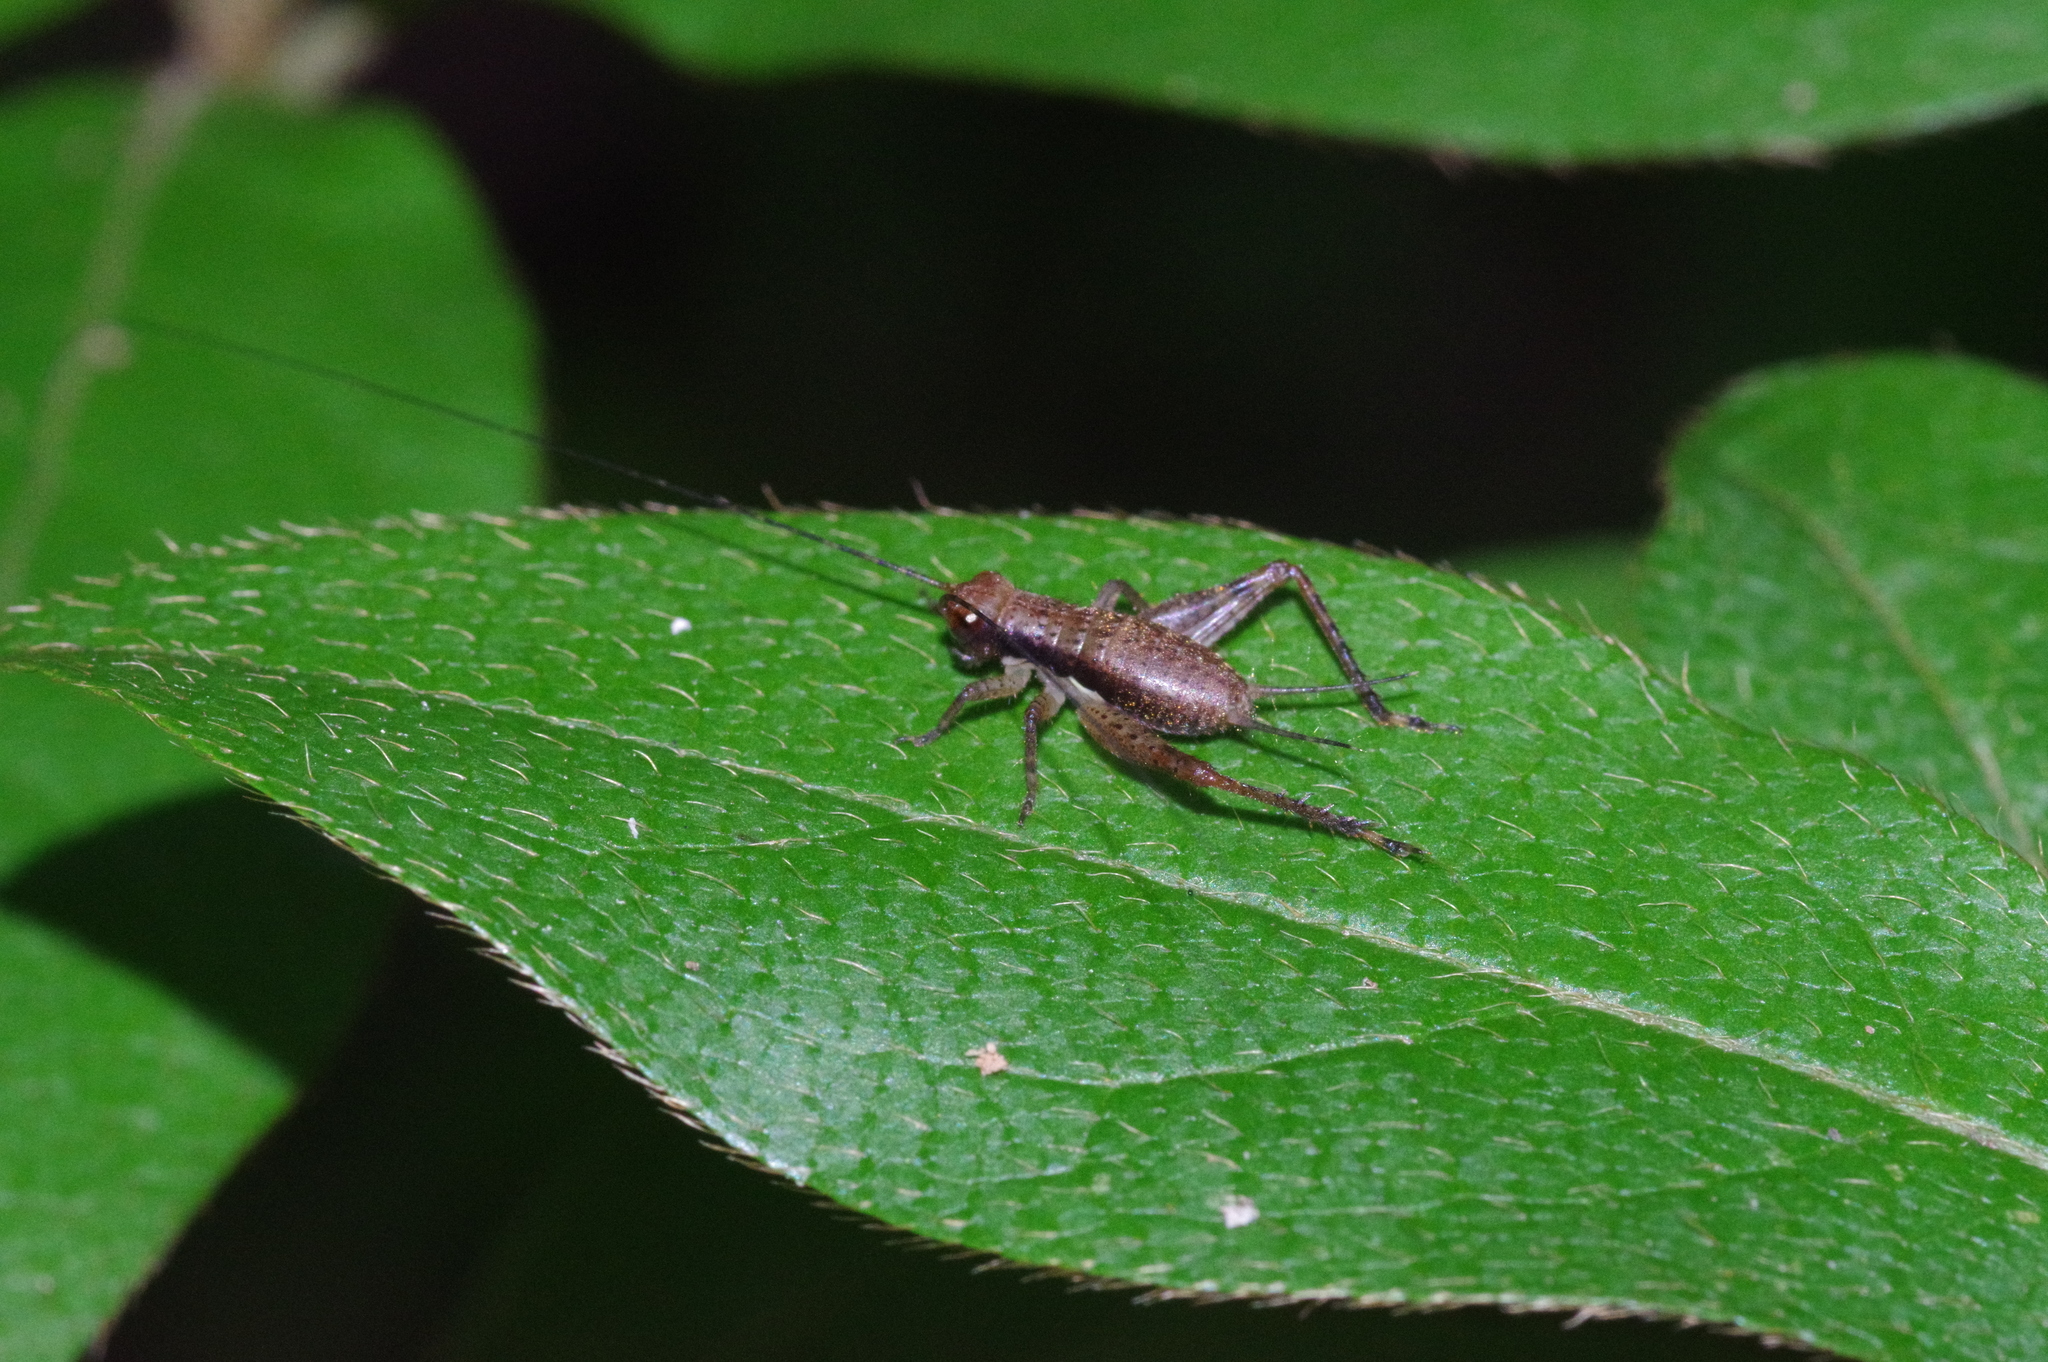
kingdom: Animalia
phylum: Arthropoda
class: Insecta
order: Orthoptera
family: Gryllidae
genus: Cardiodactylus
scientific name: Cardiodactylus guttulus
